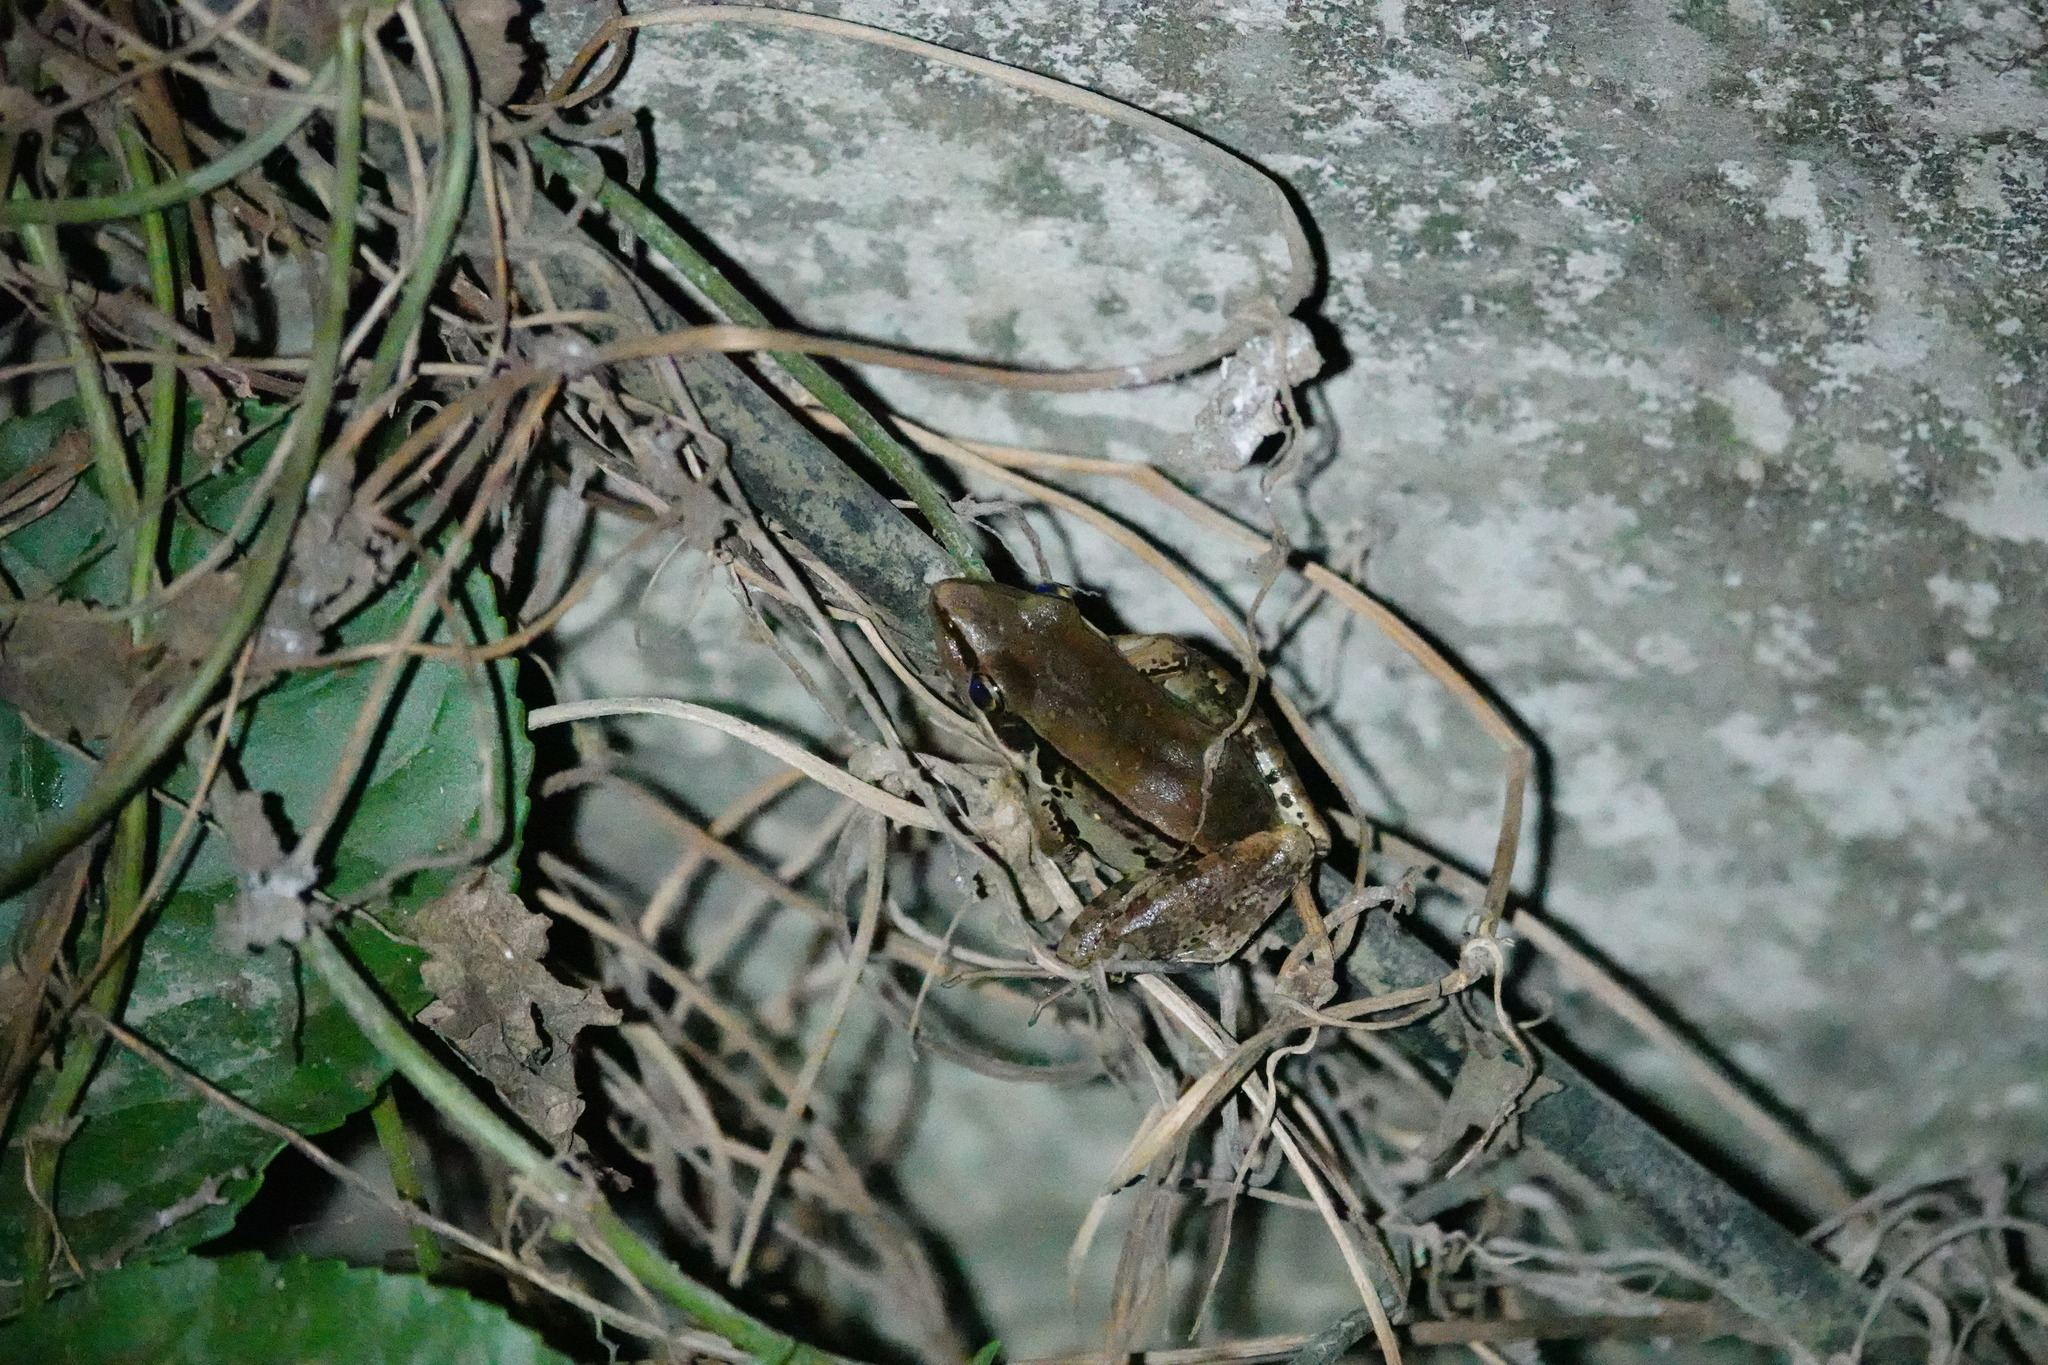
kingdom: Animalia
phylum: Chordata
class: Amphibia
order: Anura
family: Ranidae
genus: Sylvirana
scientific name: Sylvirana guentheri
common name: Guenther's amoy frog
